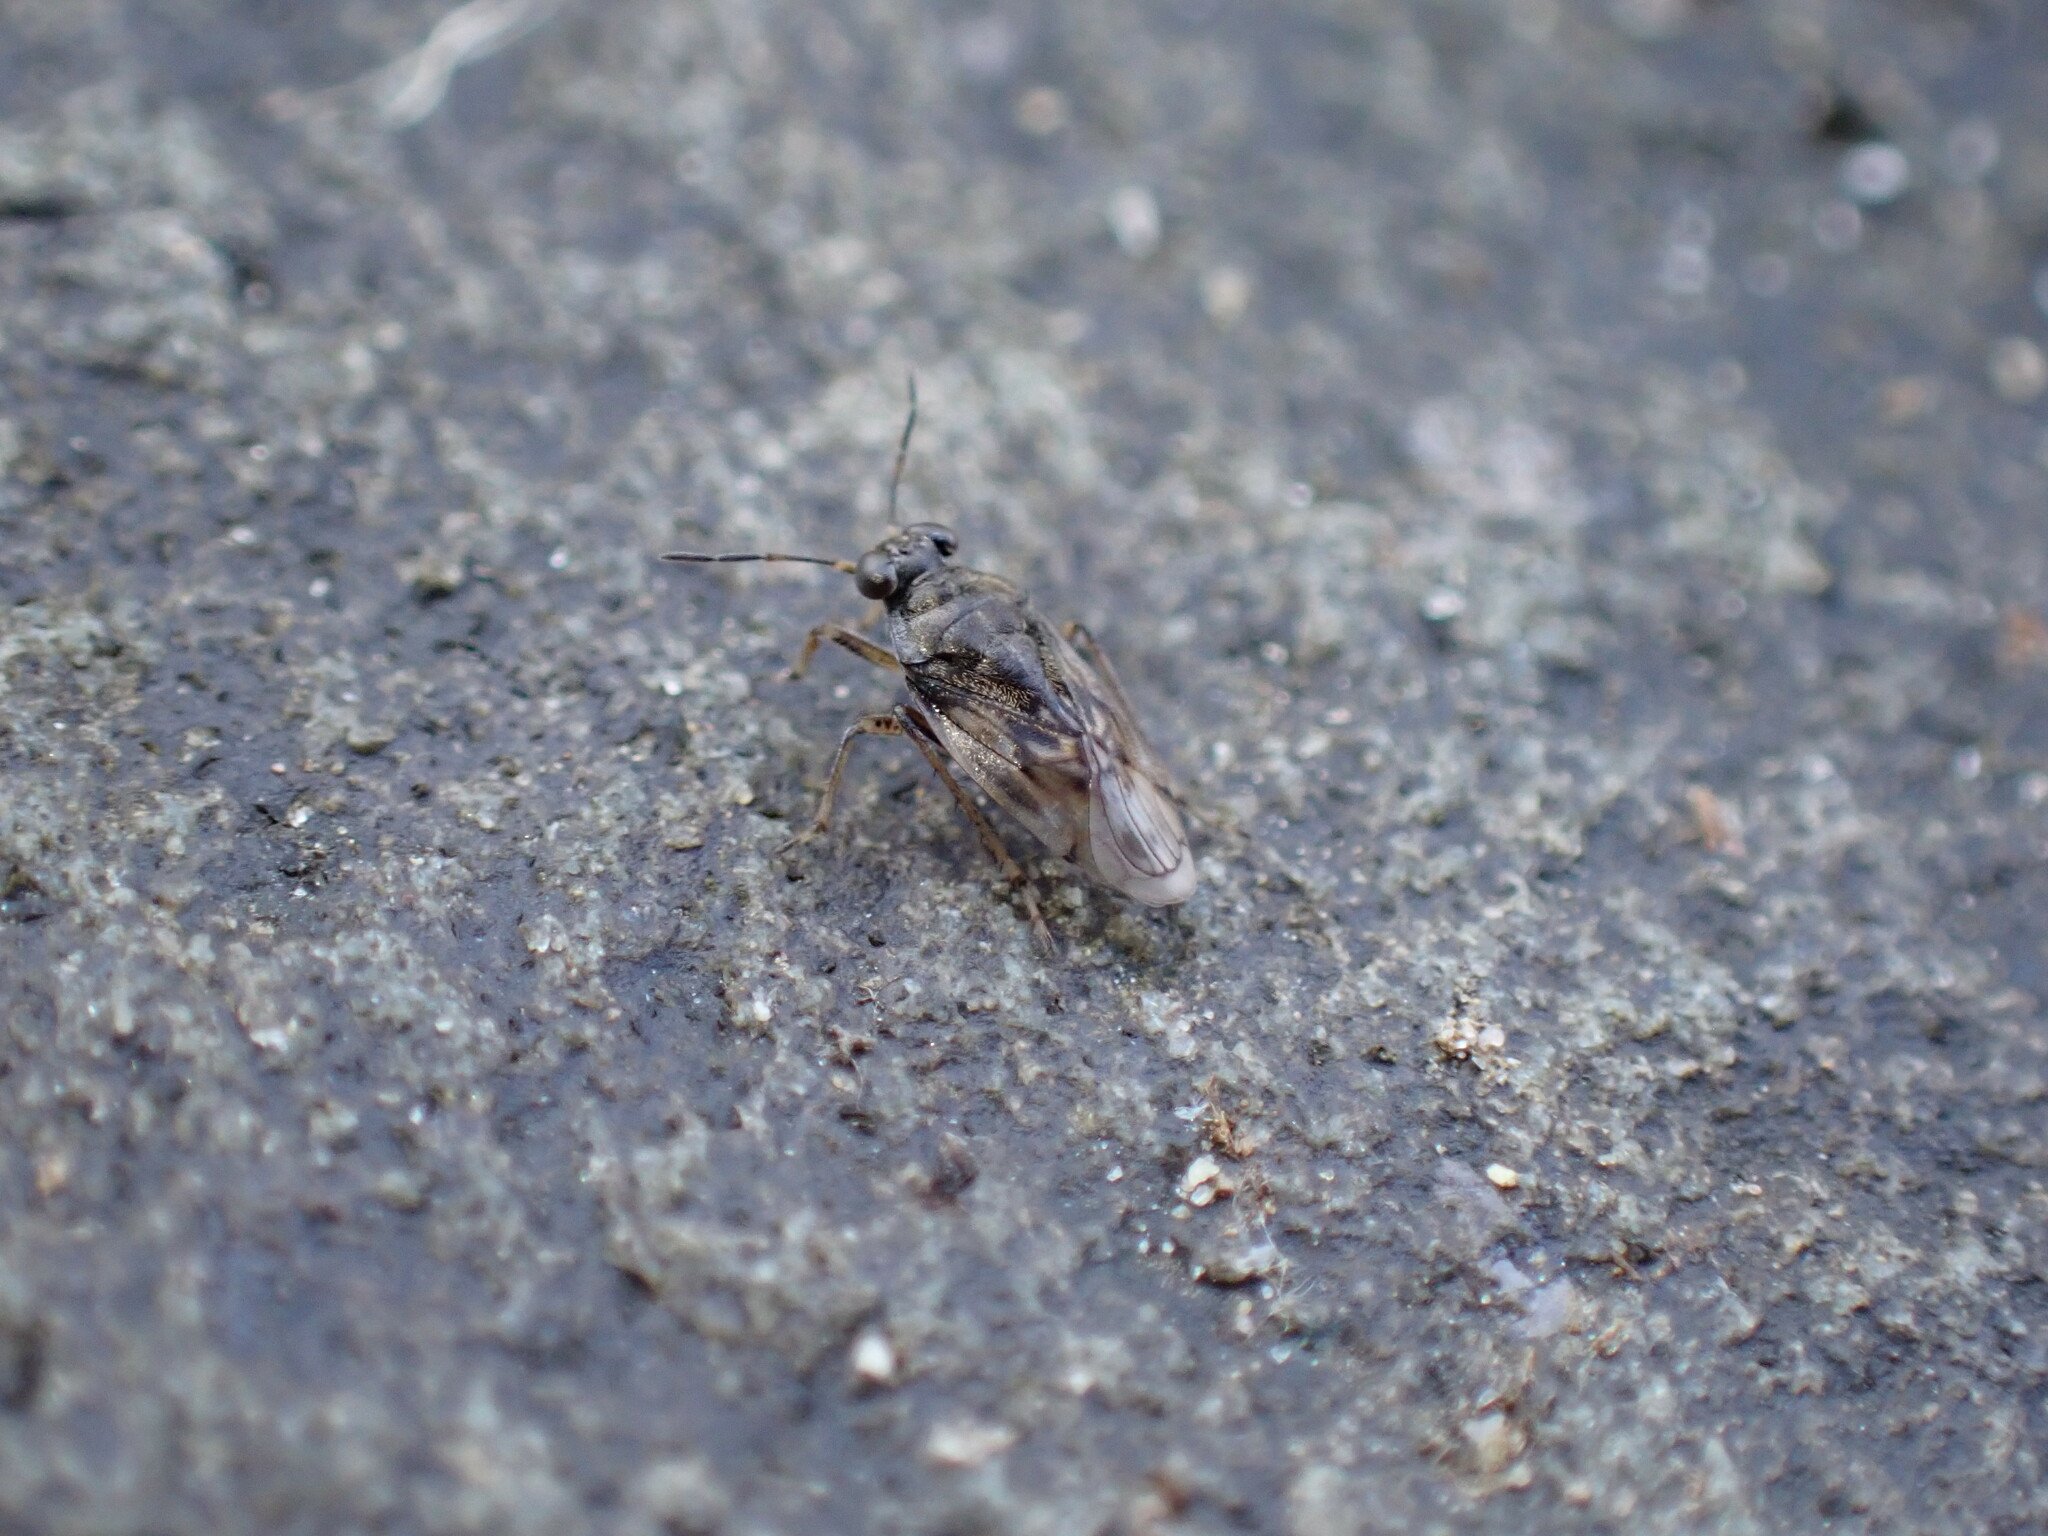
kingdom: Animalia
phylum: Arthropoda
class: Insecta
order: Hemiptera
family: Saldidae
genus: Saldula
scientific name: Saldula
